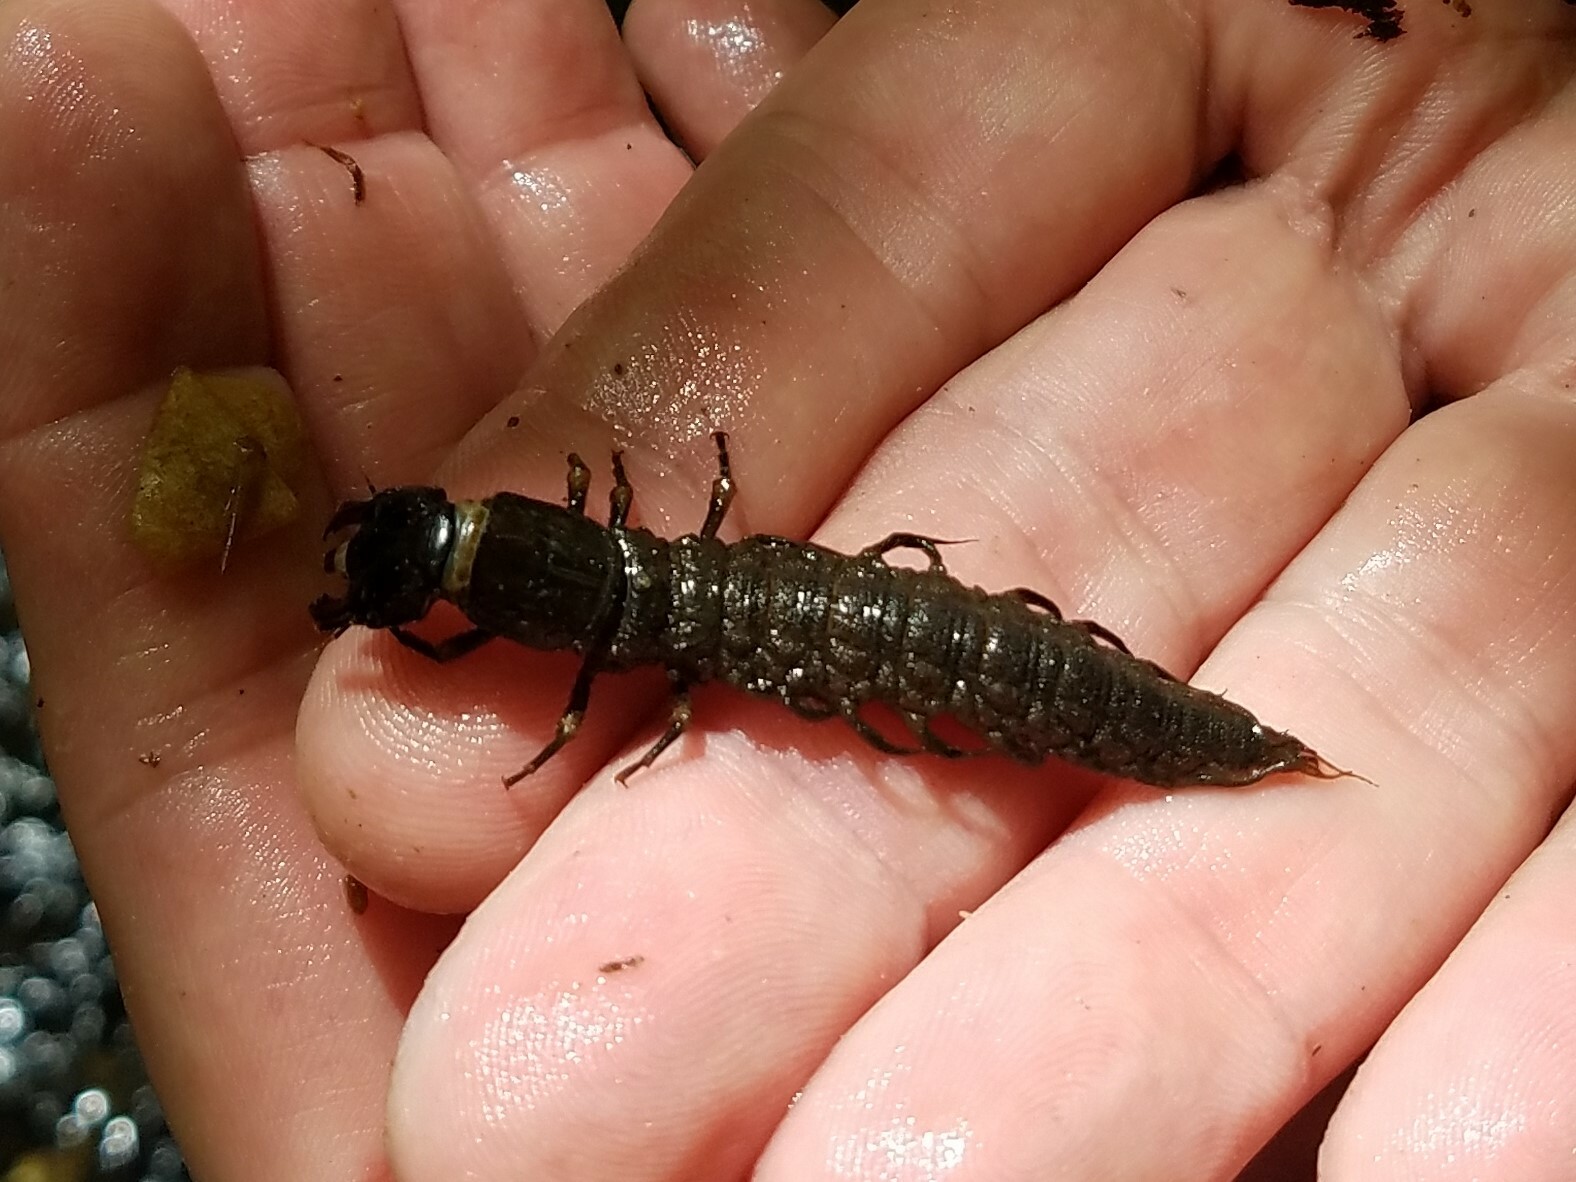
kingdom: Animalia
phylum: Arthropoda
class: Insecta
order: Megaloptera
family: Corydalidae
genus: Corydalus
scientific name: Corydalus cornutus
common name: Dobsonfly
